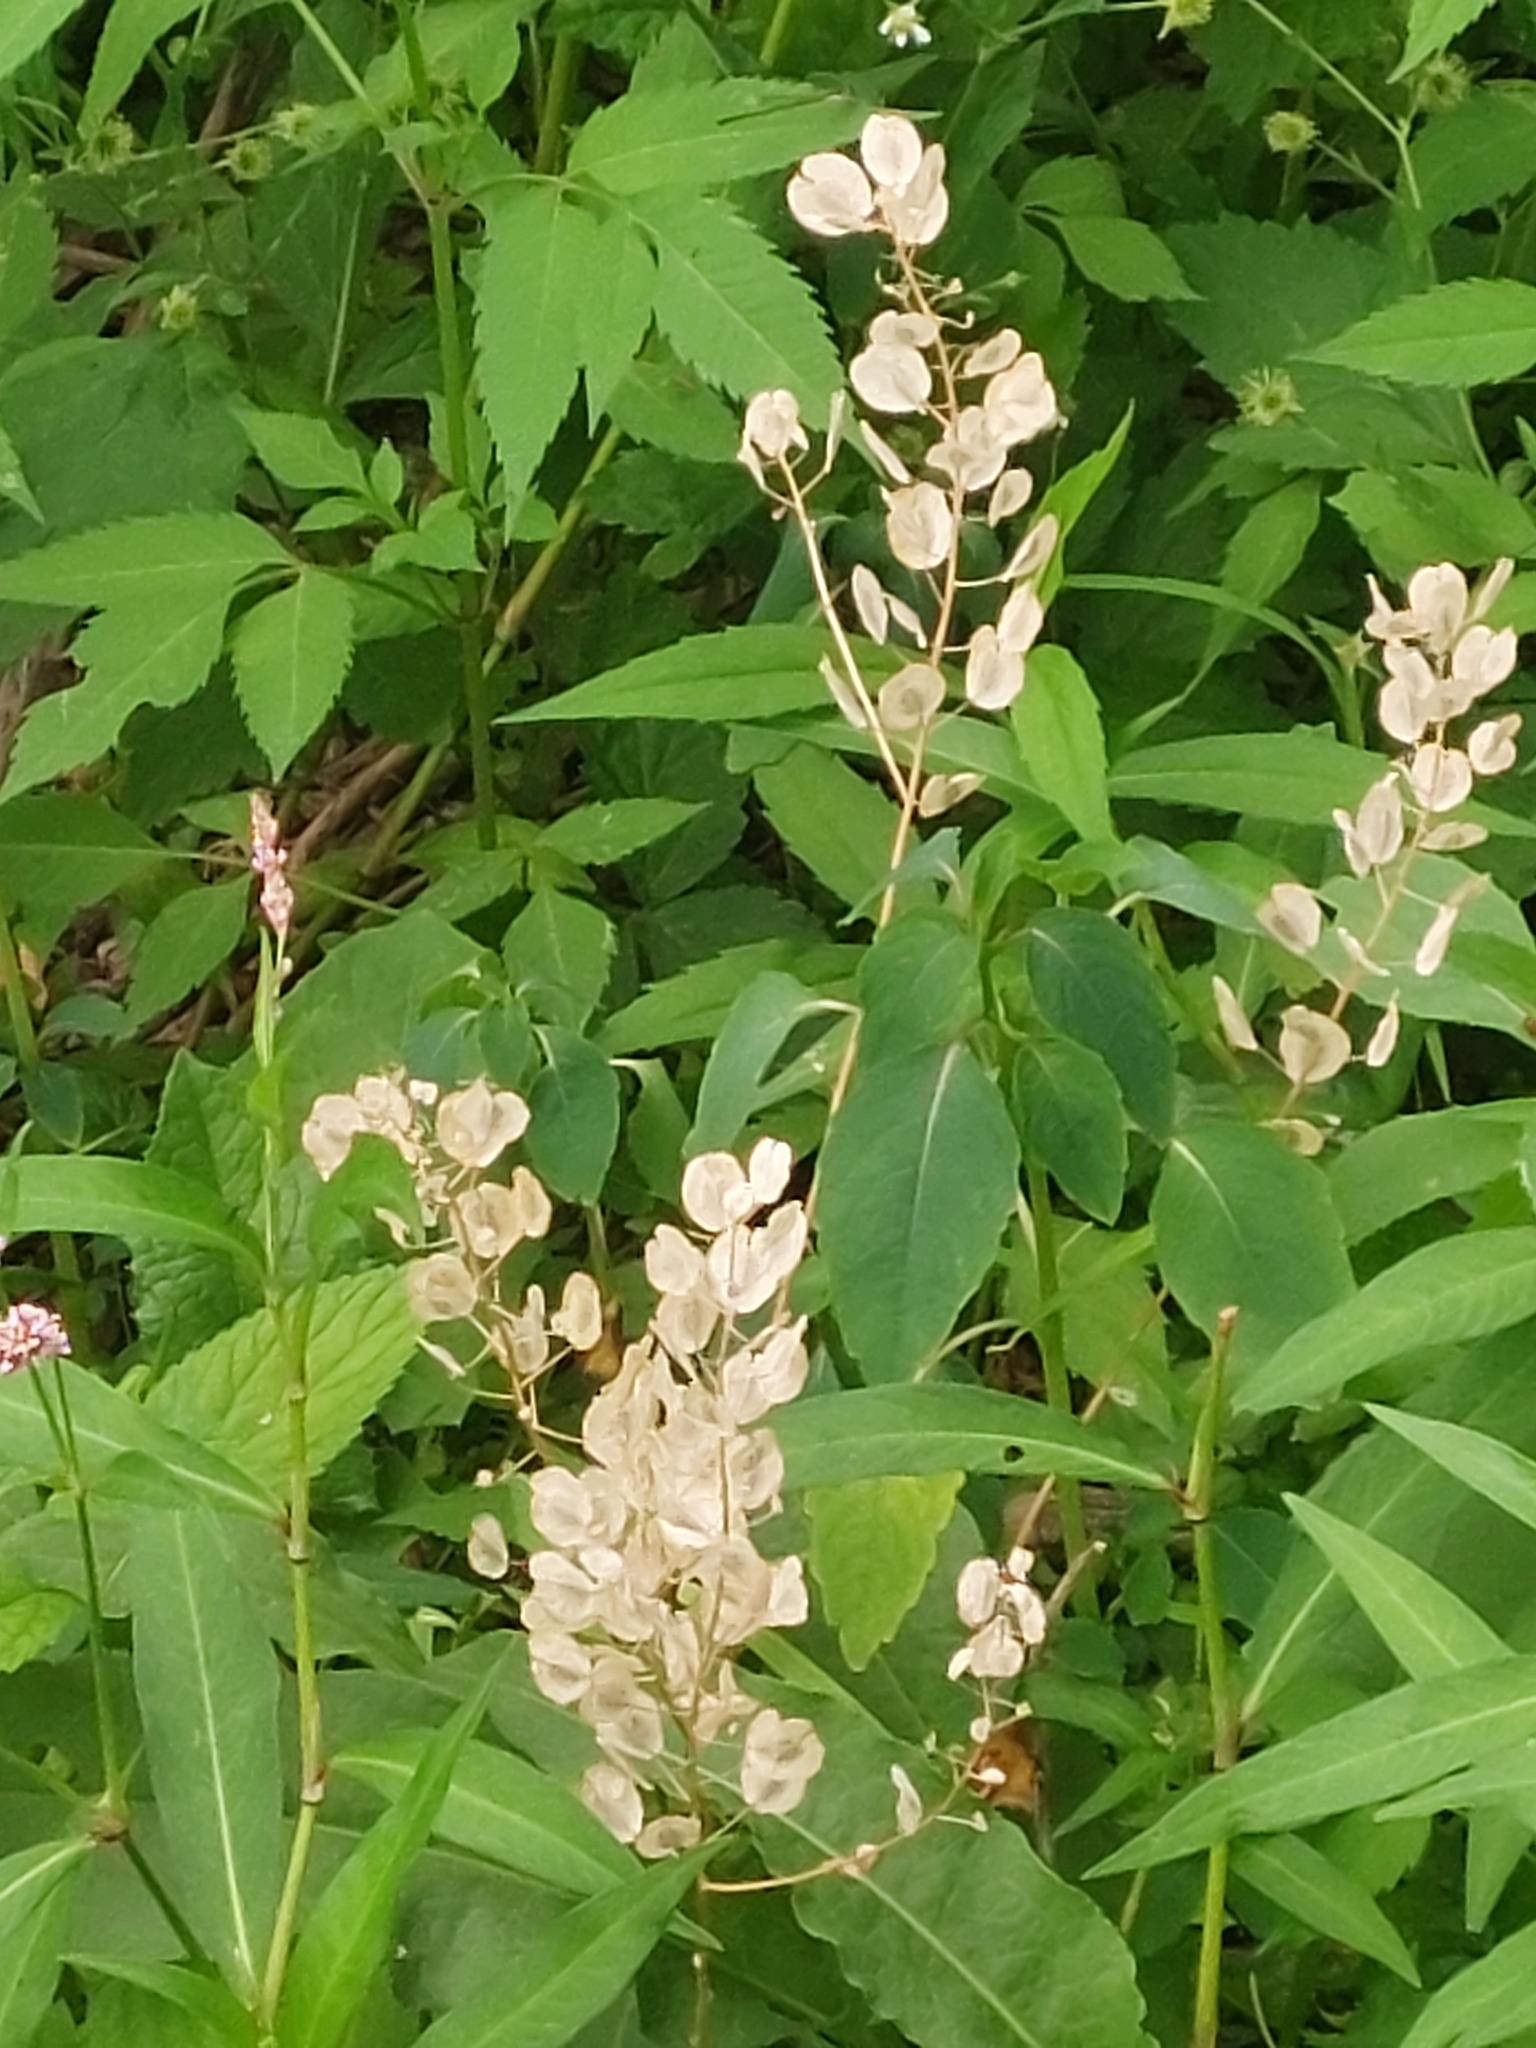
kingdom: Plantae
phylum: Tracheophyta
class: Magnoliopsida
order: Brassicales
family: Brassicaceae
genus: Thlaspi
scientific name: Thlaspi arvense
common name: Field pennycress
